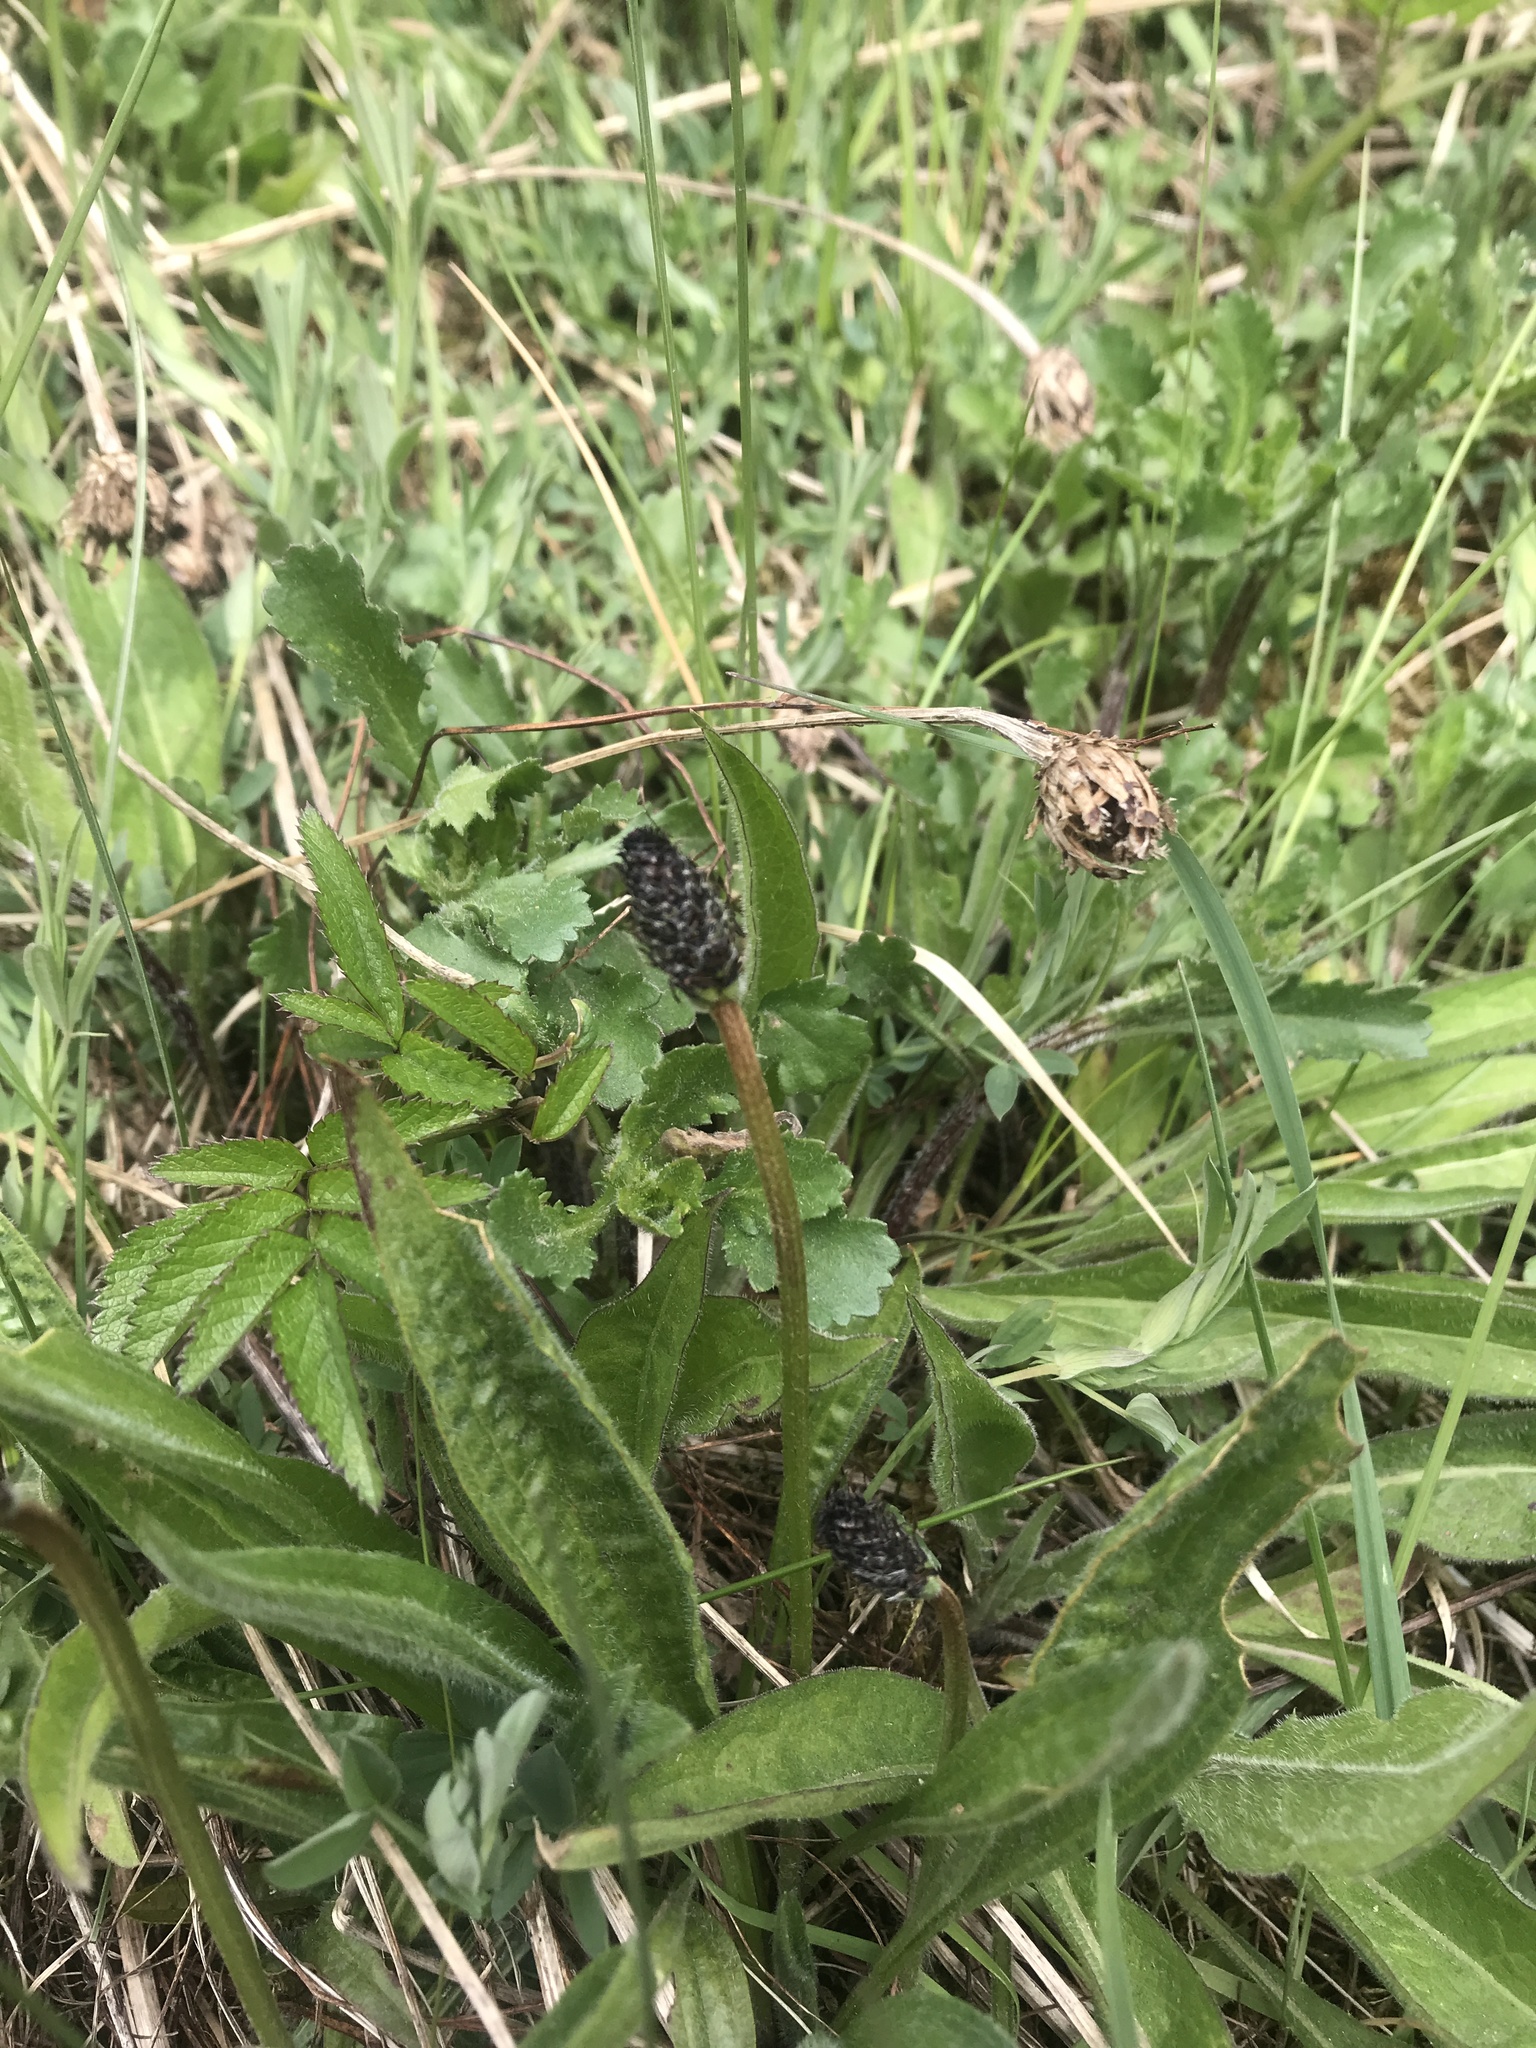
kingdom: Plantae
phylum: Tracheophyta
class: Magnoliopsida
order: Lamiales
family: Plantaginaceae
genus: Plantago
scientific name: Plantago lanceolata
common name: Ribwort plantain
